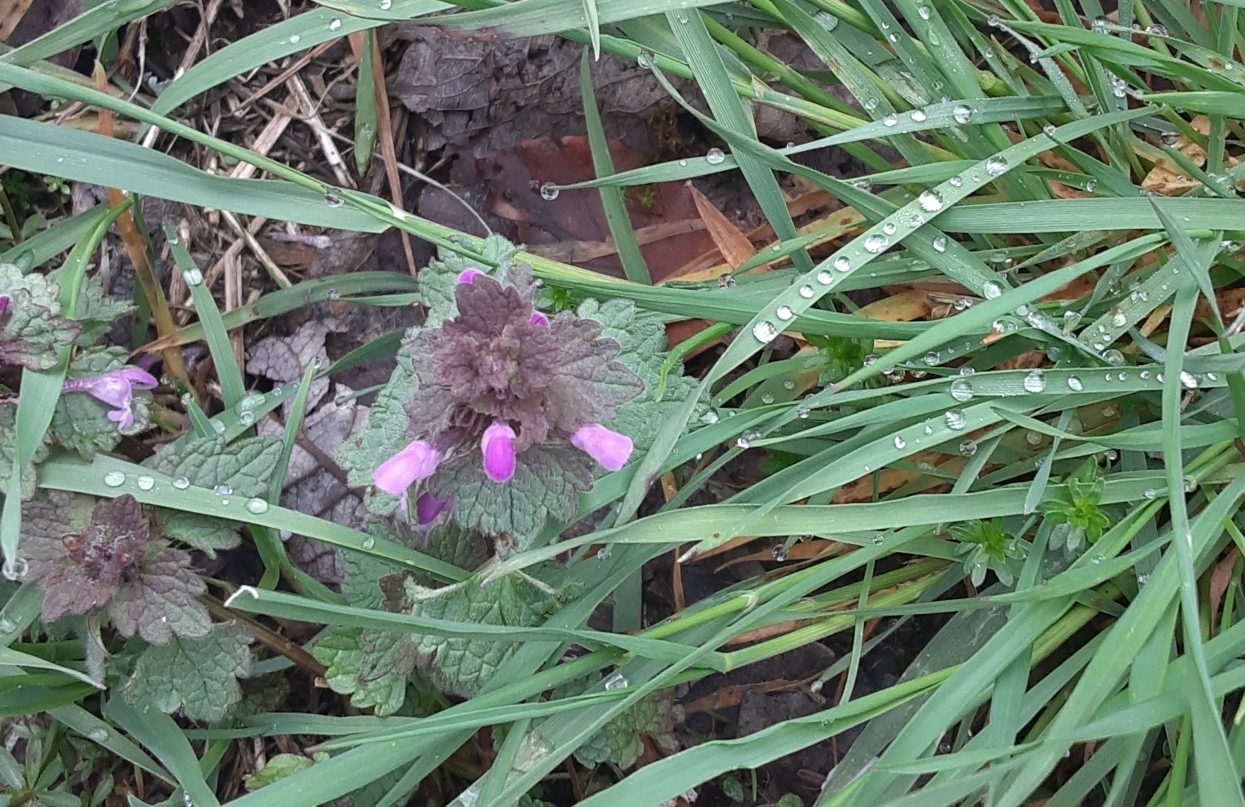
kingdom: Plantae
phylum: Tracheophyta
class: Magnoliopsida
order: Lamiales
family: Lamiaceae
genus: Lamium
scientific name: Lamium purpureum
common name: Red dead-nettle
